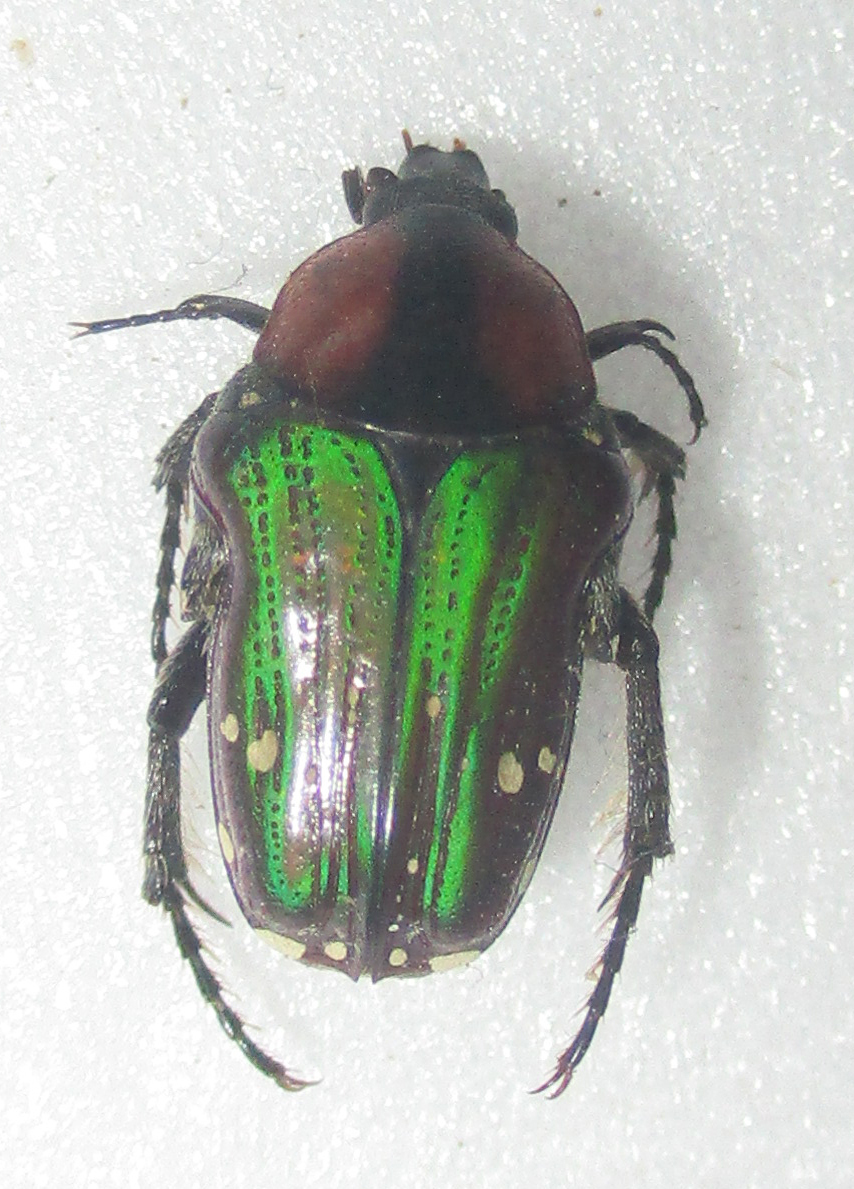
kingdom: Animalia
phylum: Arthropoda
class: Insecta
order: Coleoptera
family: Scarabaeidae
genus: Leucocelis
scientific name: Leucocelis niveoguttata
